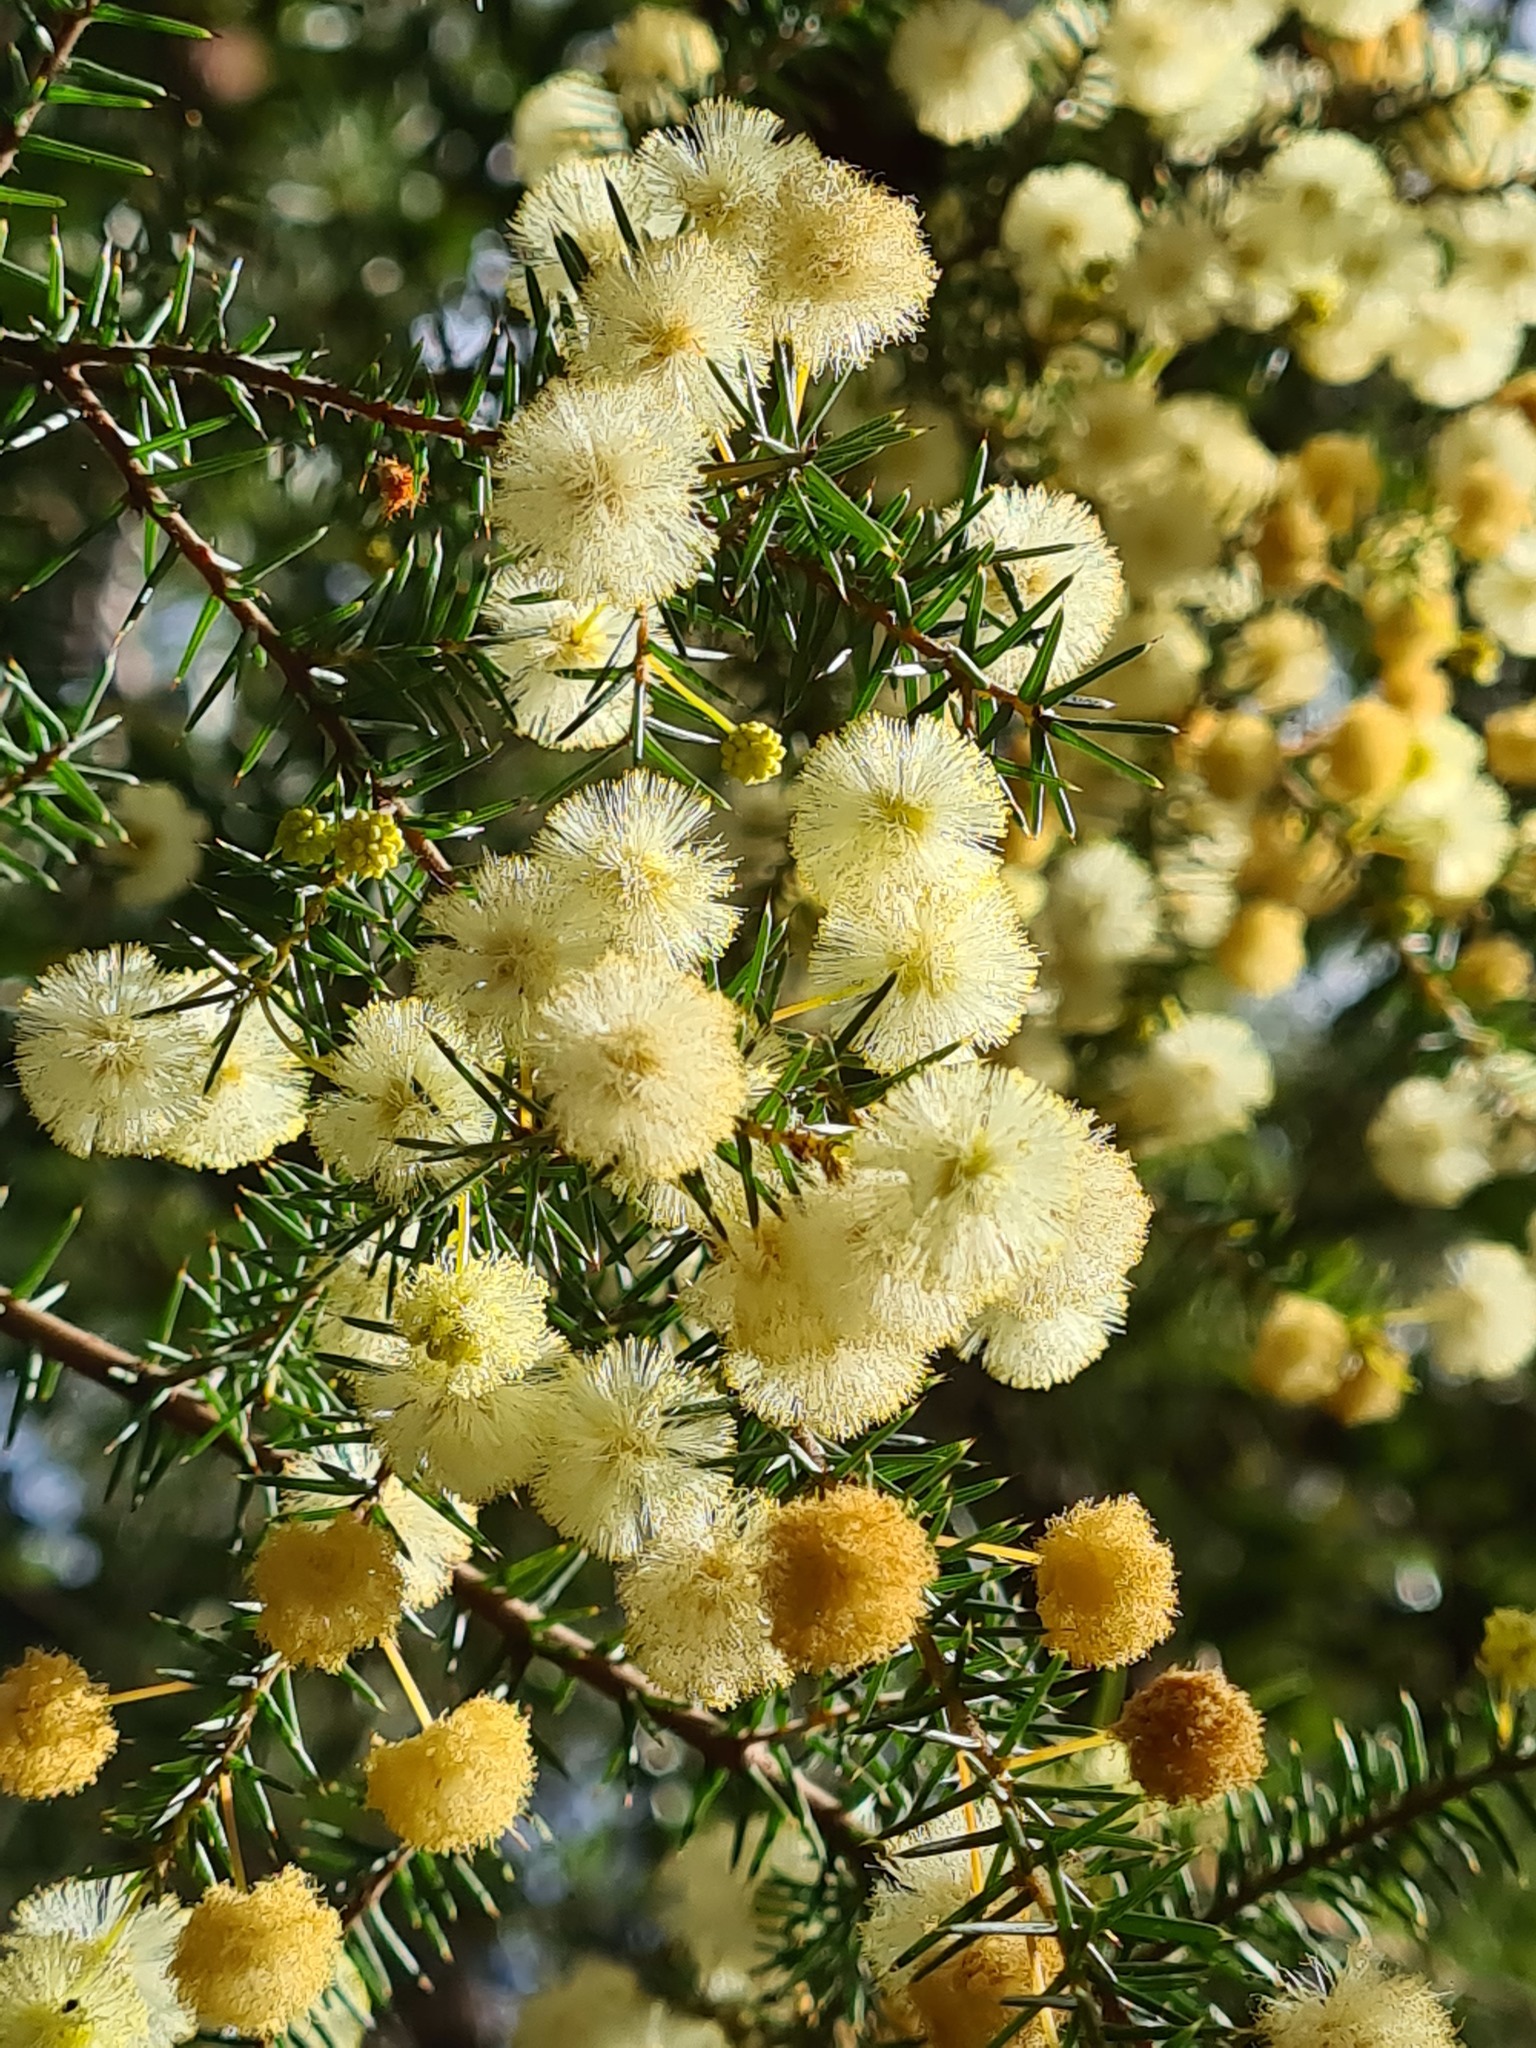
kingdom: Plantae
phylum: Tracheophyta
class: Magnoliopsida
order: Fabales
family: Fabaceae
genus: Acacia
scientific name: Acacia ulicifolia
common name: Juniper wattle
